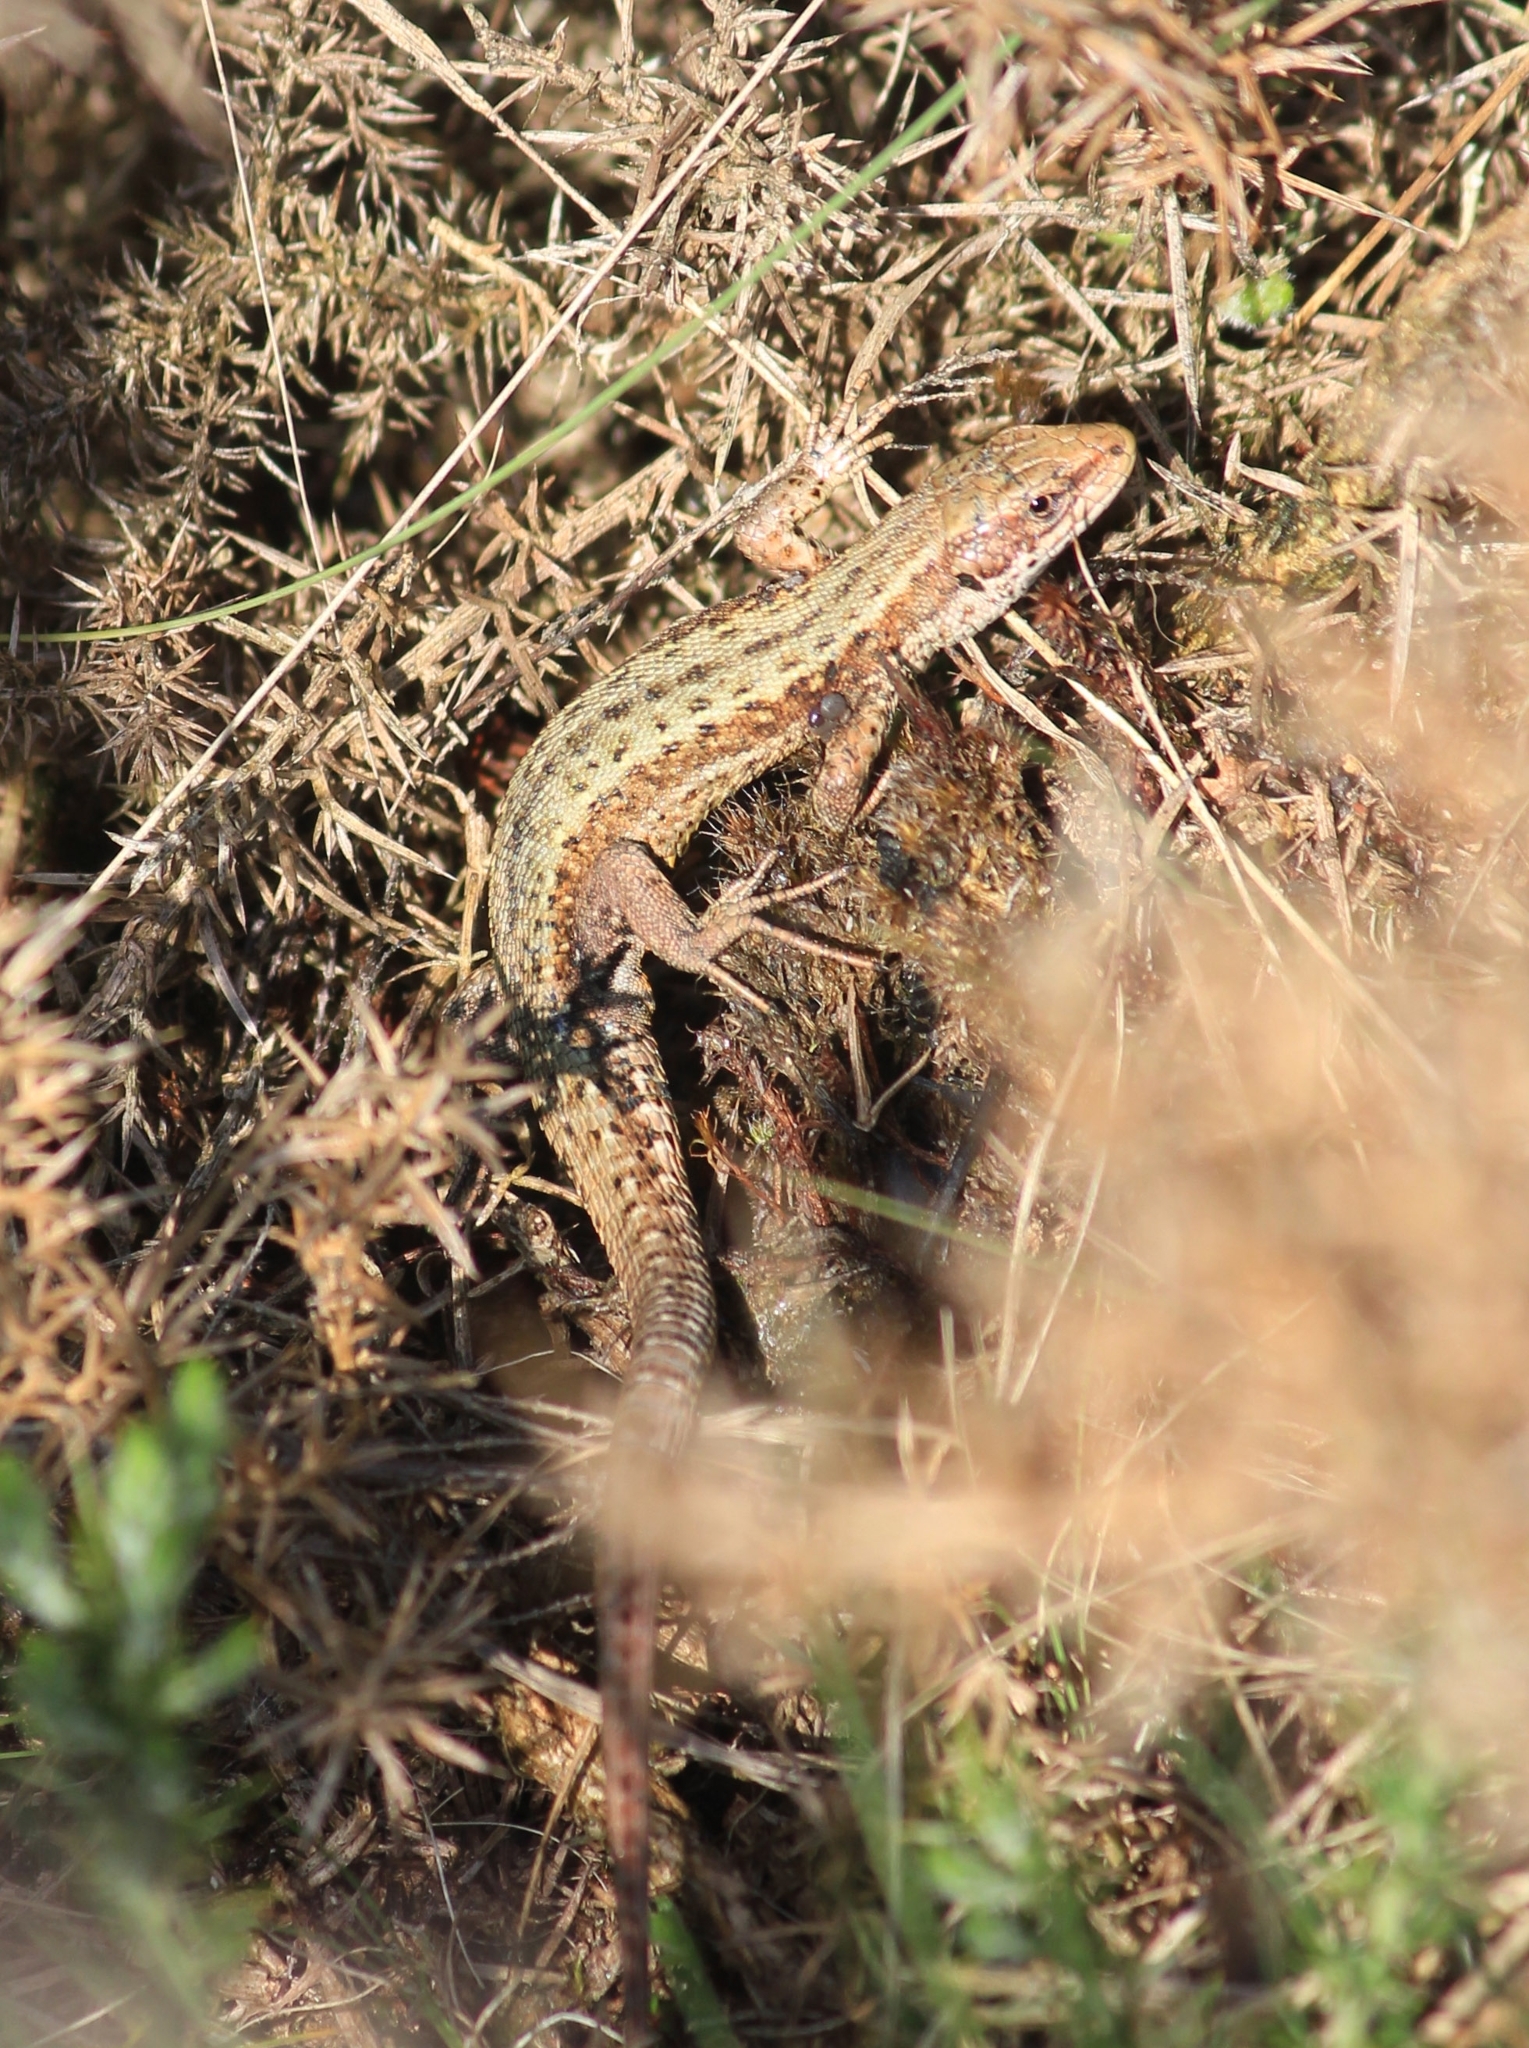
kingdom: Animalia
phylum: Chordata
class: Squamata
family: Lacertidae
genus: Zootoca
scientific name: Zootoca vivipara
